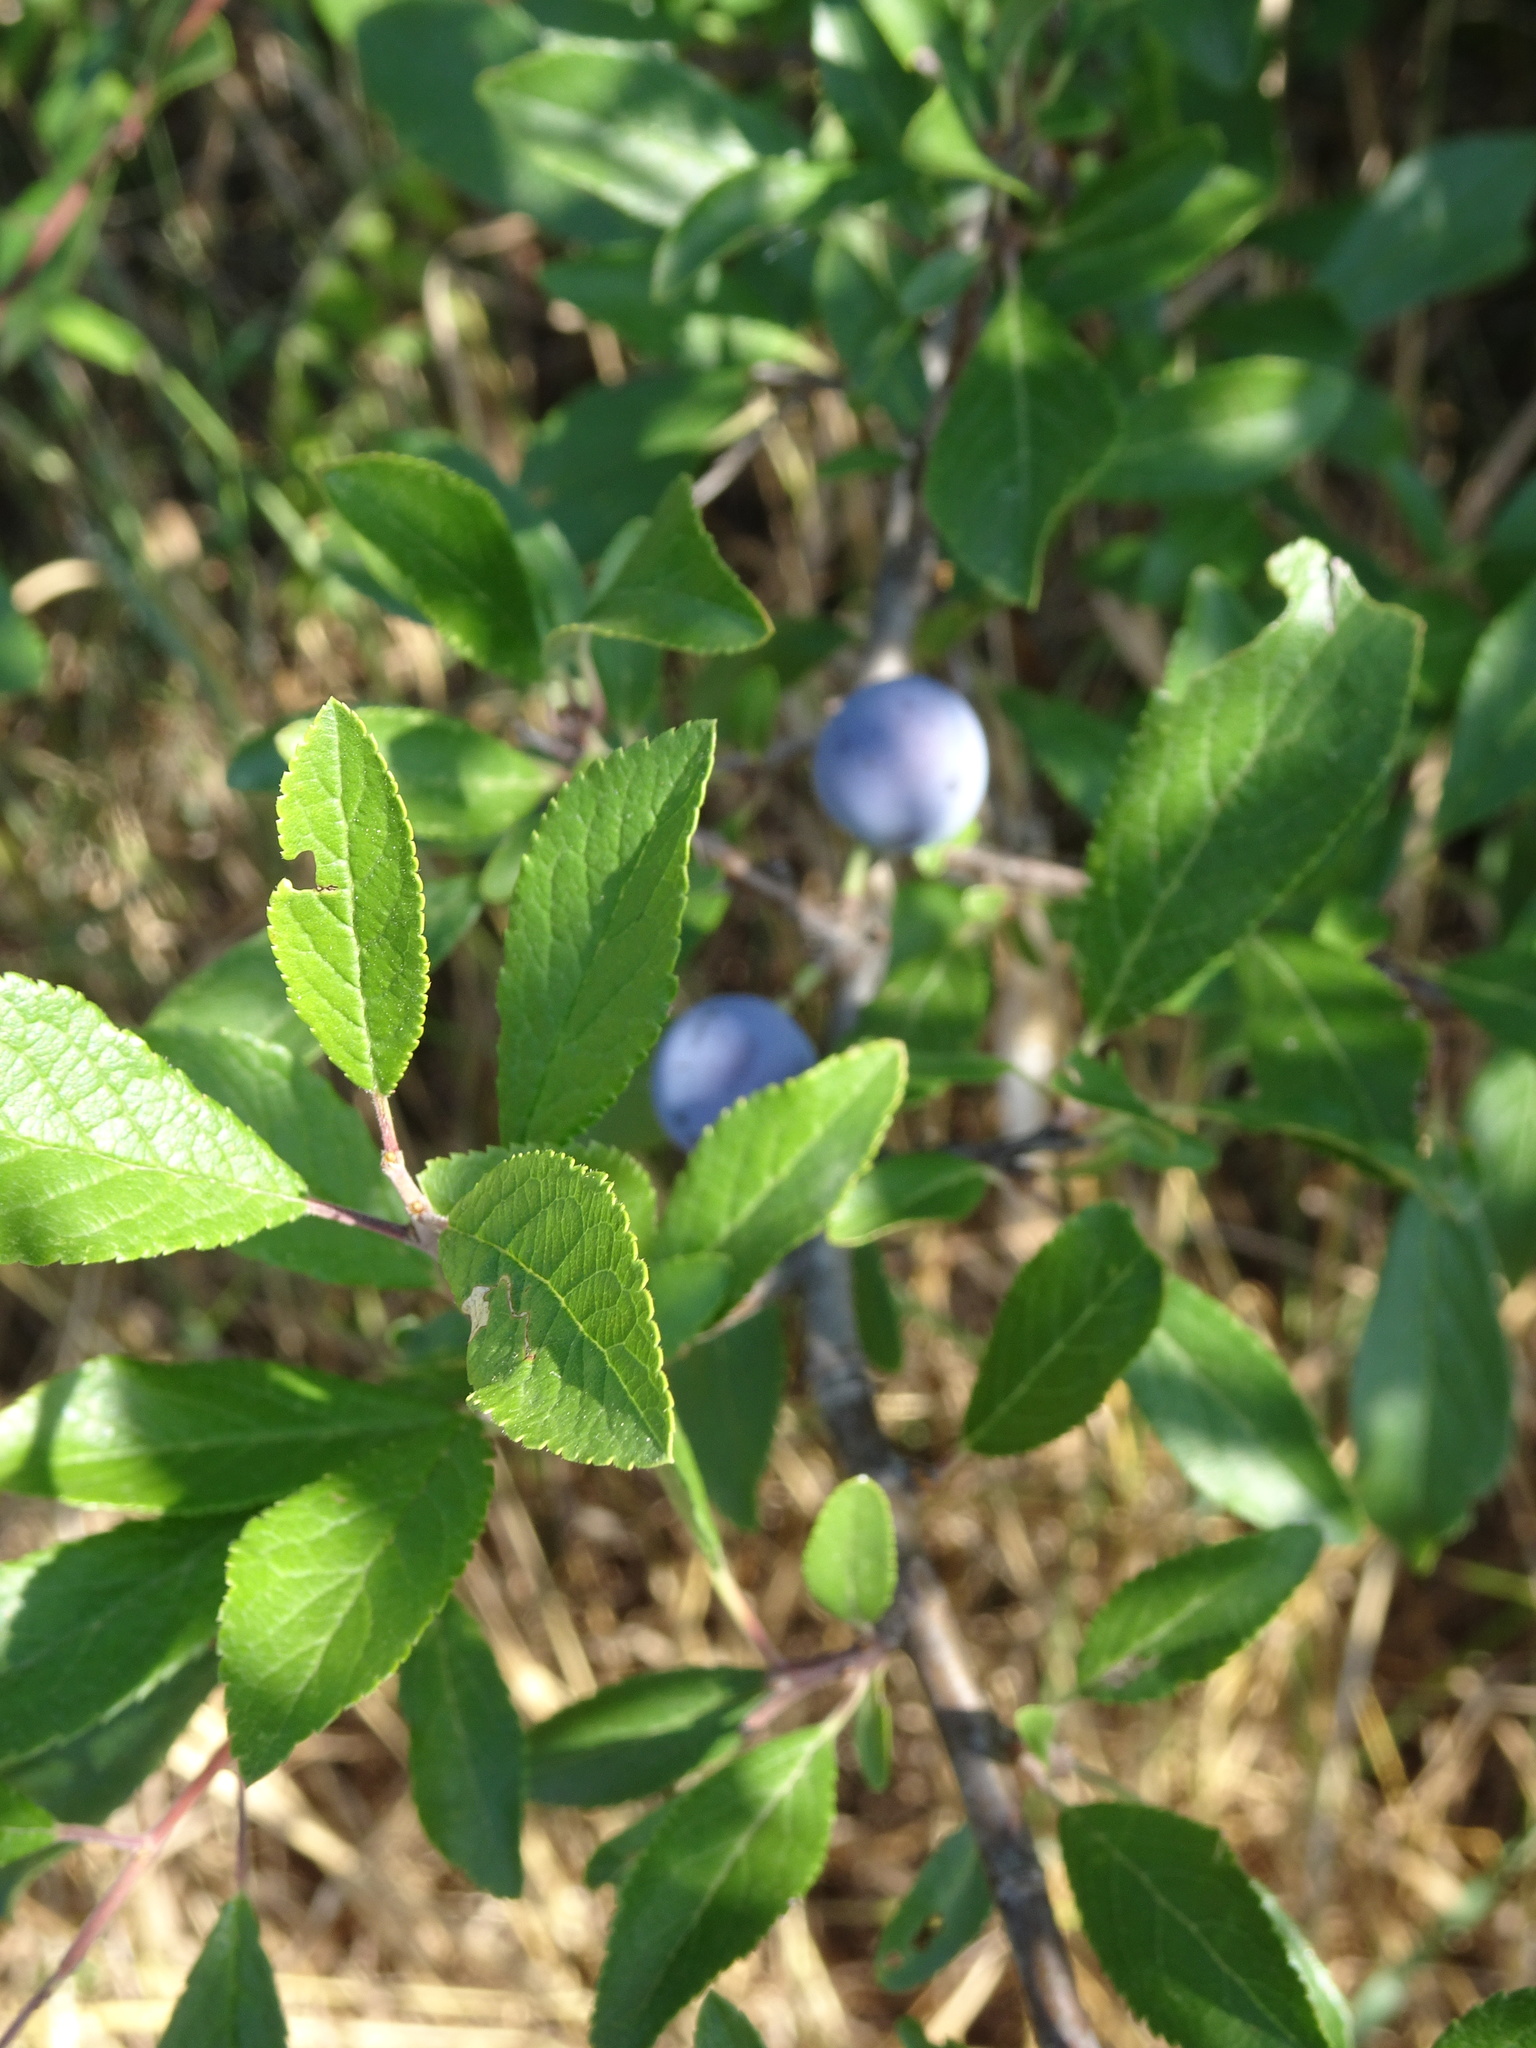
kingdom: Plantae
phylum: Tracheophyta
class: Magnoliopsida
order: Rosales
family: Rosaceae
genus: Prunus
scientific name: Prunus spinosa
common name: Blackthorn
